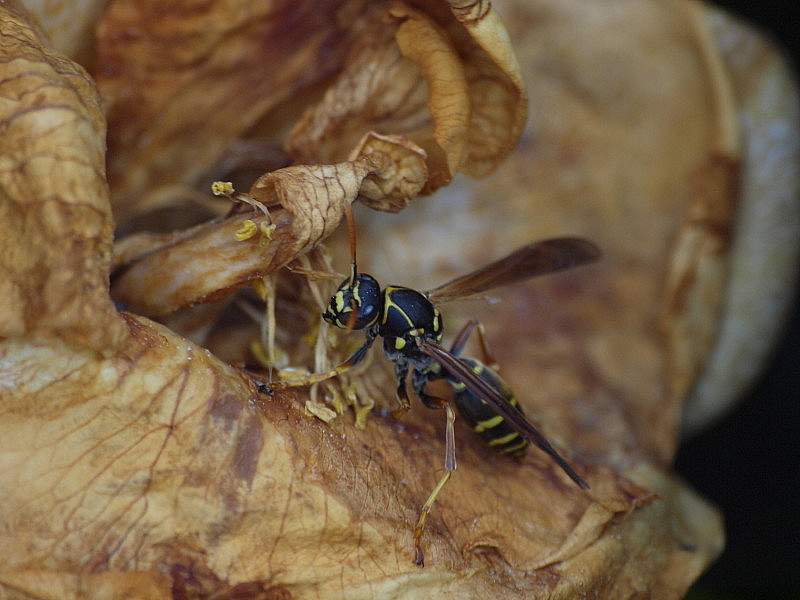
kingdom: Animalia
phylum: Arthropoda
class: Insecta
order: Hymenoptera
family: Eumenidae
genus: Polistes
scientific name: Polistes chinensis
